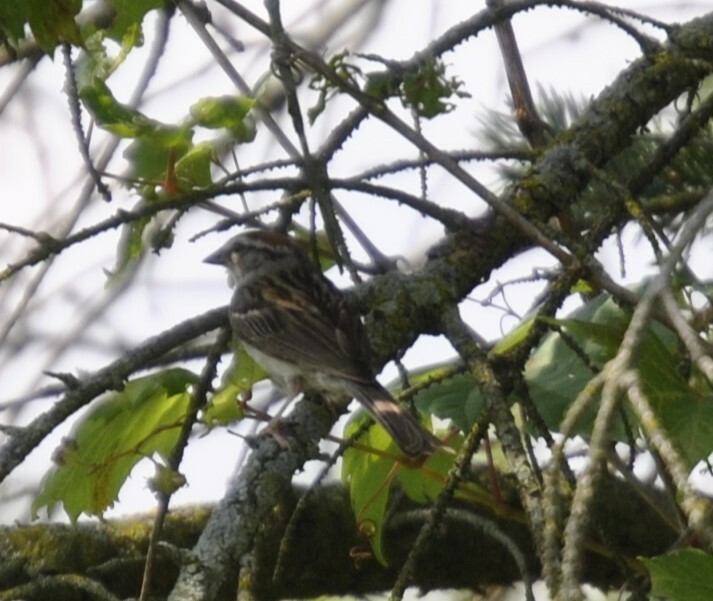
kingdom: Animalia
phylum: Chordata
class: Aves
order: Passeriformes
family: Passerellidae
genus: Spizella
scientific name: Spizella passerina
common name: Chipping sparrow
